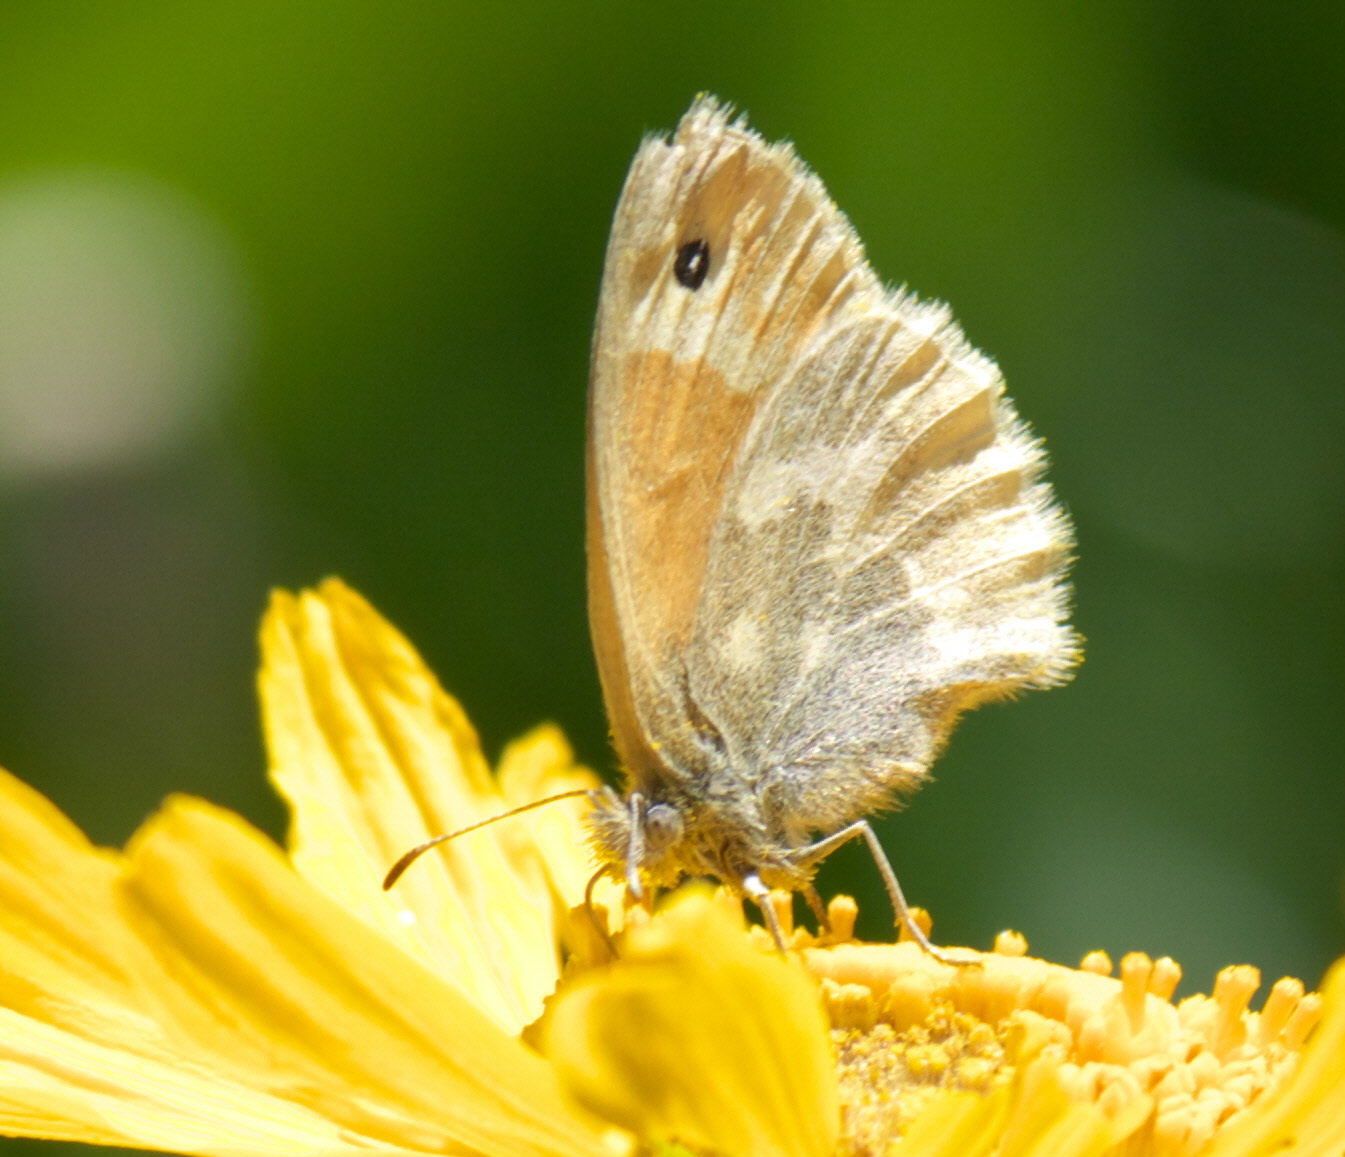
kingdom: Animalia
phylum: Arthropoda
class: Insecta
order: Lepidoptera
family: Nymphalidae
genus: Coenonympha
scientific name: Coenonympha california
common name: Common ringlet
